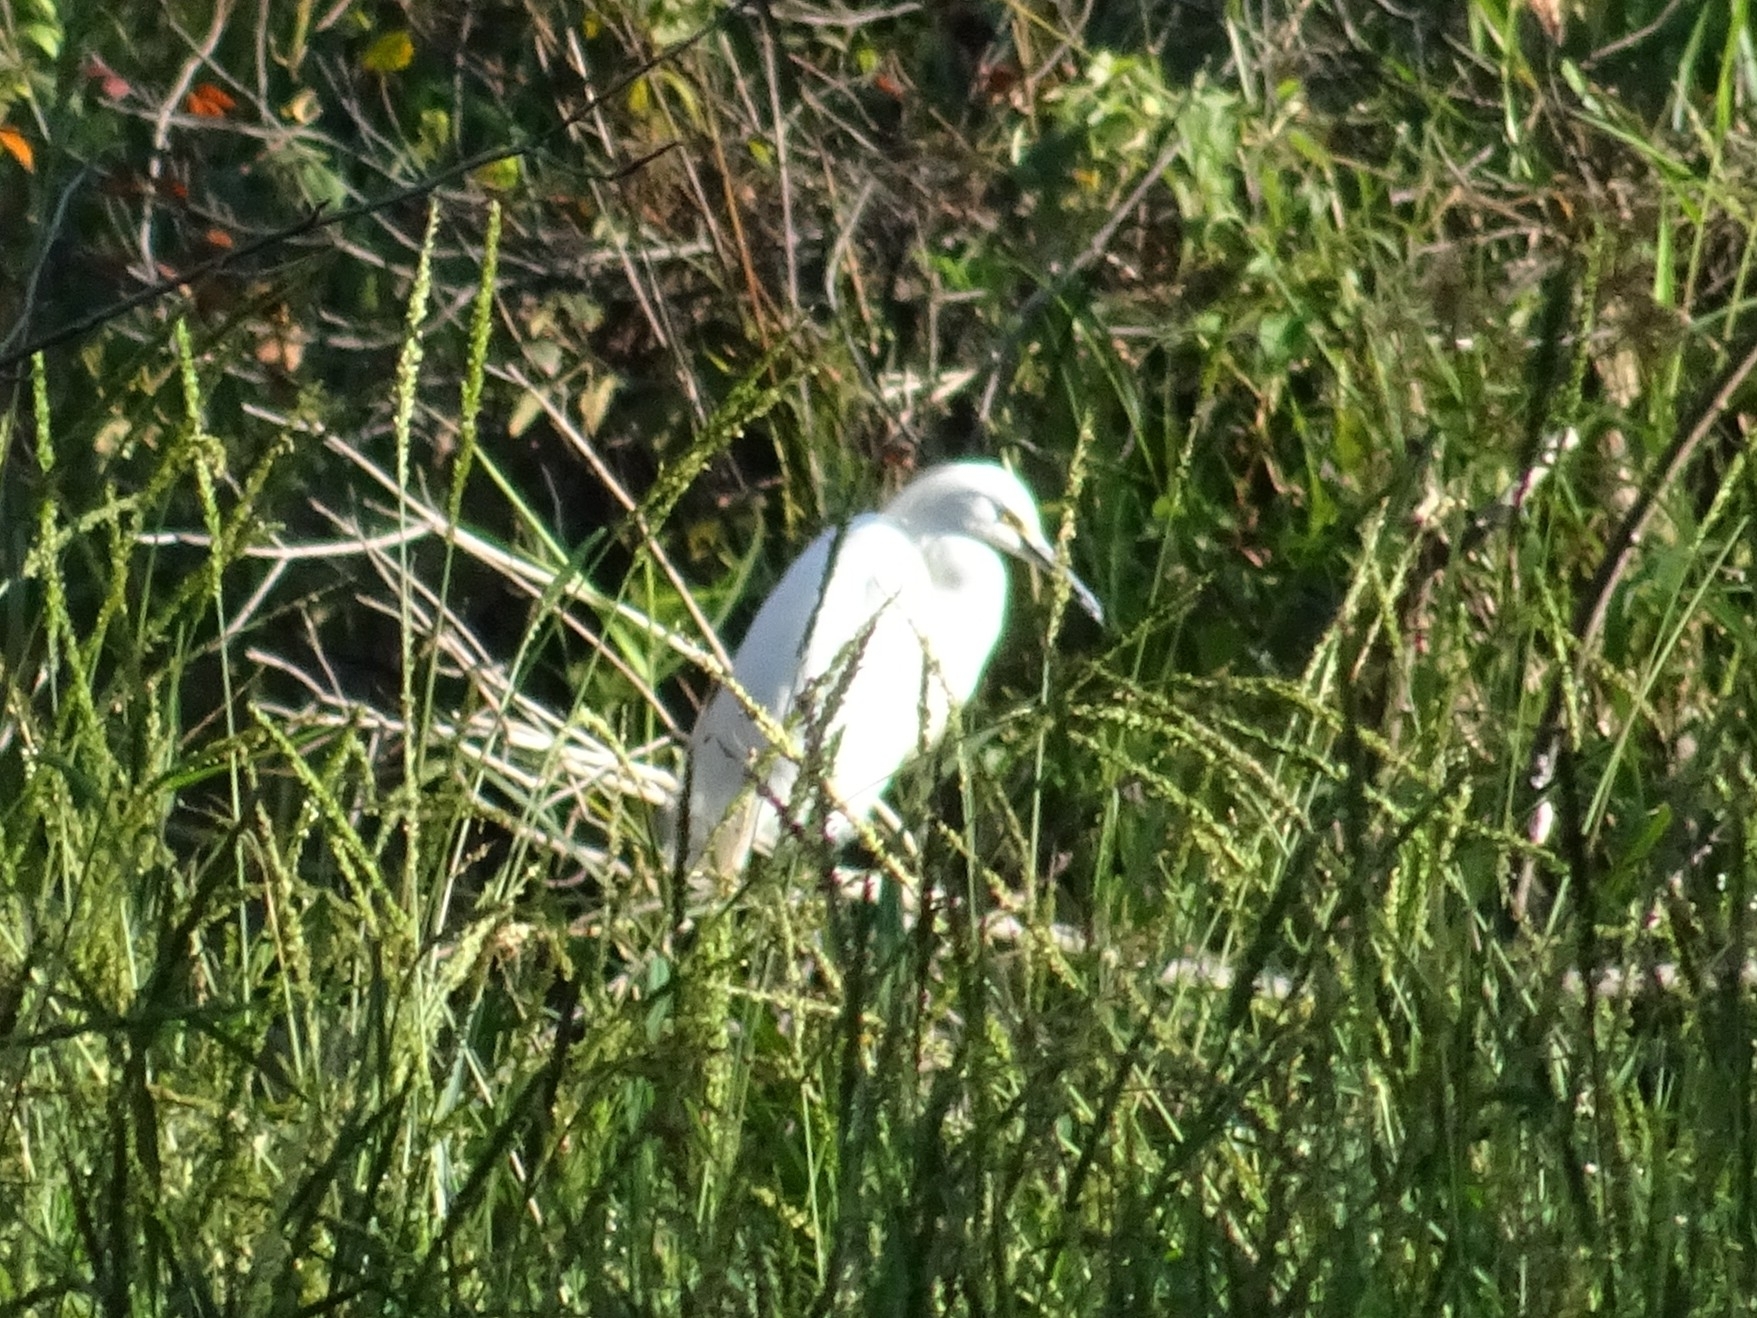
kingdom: Animalia
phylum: Chordata
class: Aves
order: Pelecaniformes
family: Ardeidae
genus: Egretta
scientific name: Egretta thula
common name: Snowy egret
